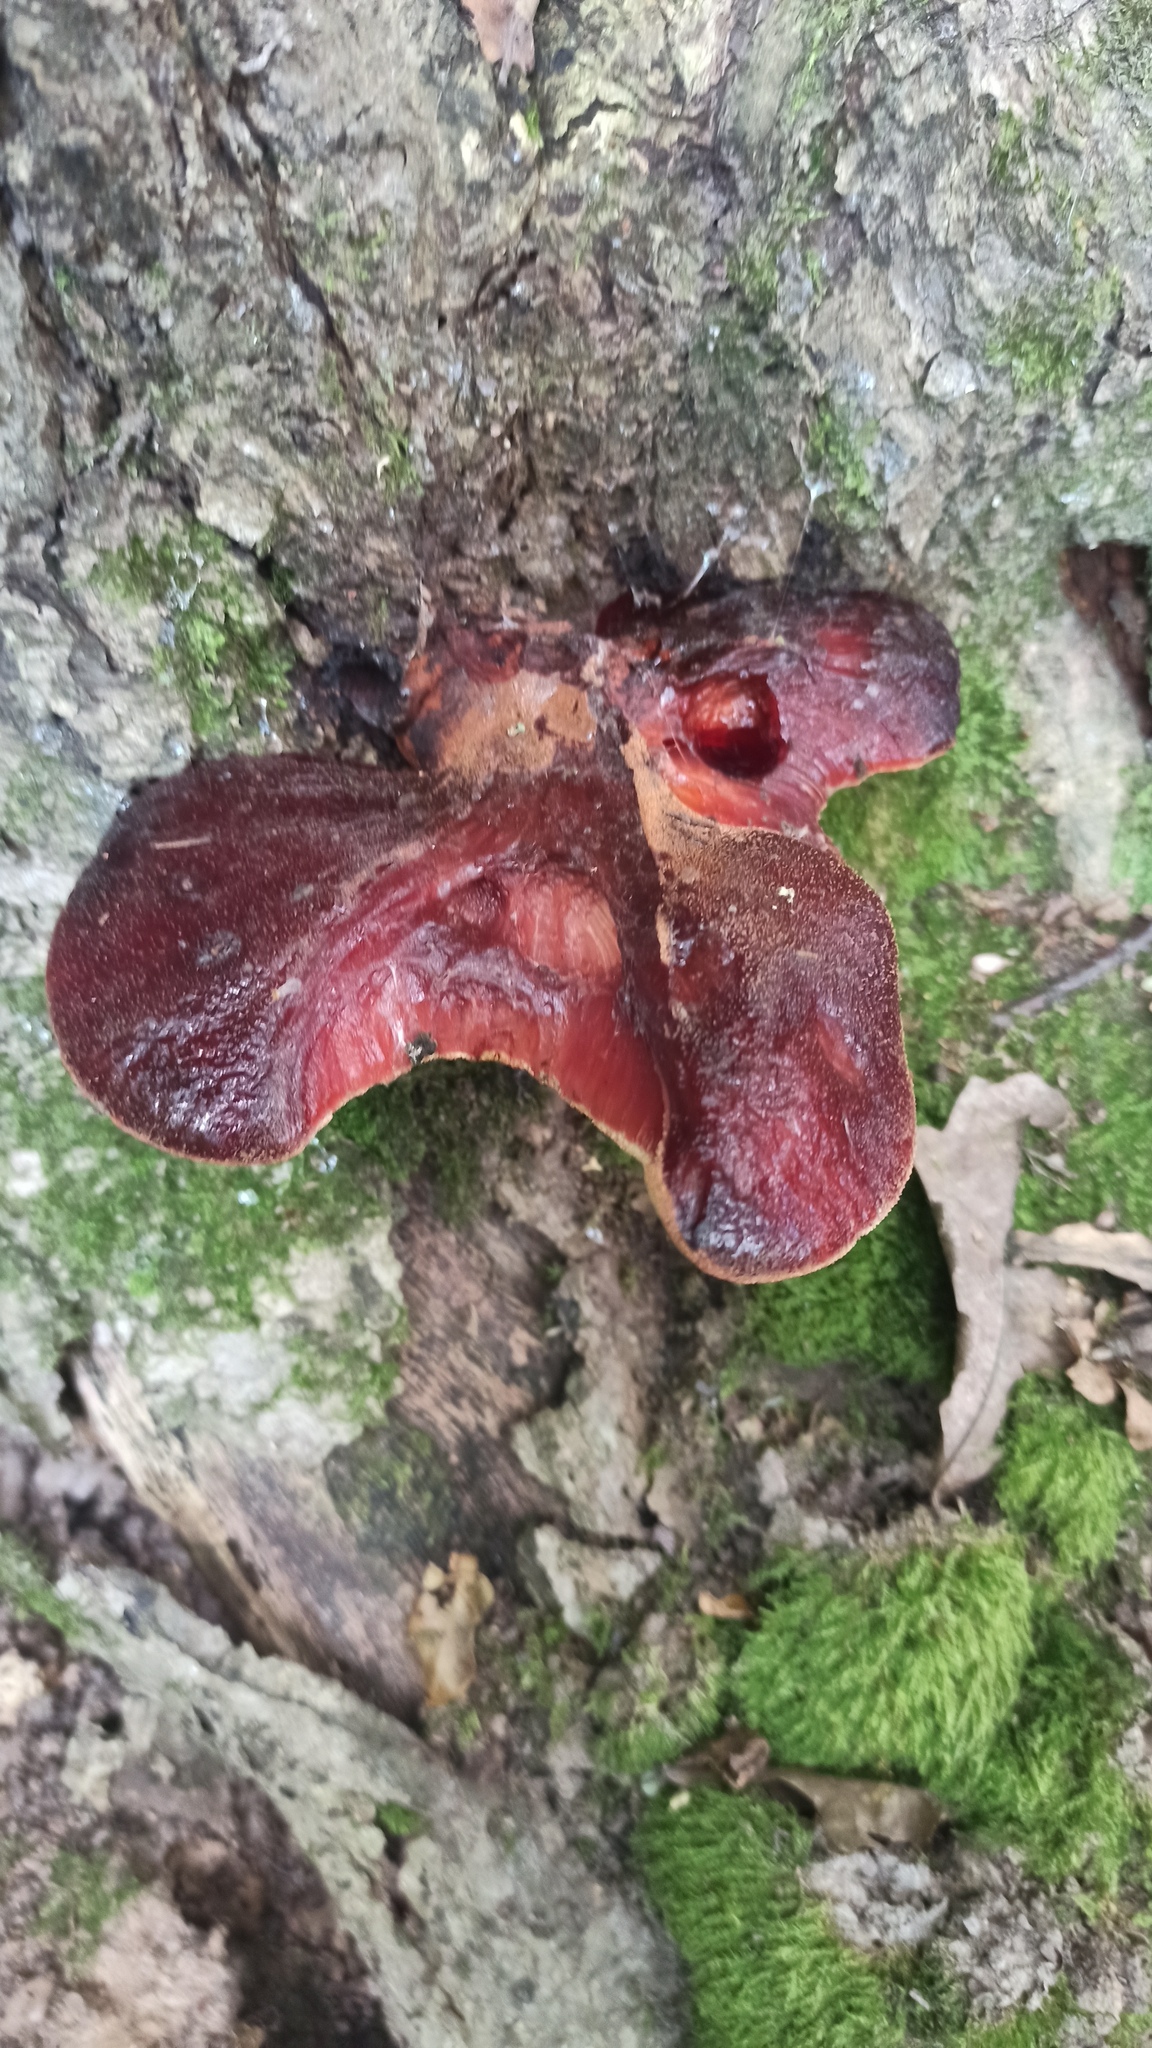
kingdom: Fungi
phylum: Basidiomycota
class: Agaricomycetes
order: Agaricales
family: Fistulinaceae
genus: Fistulina
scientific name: Fistulina hepatica
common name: Beef-steak fungus
